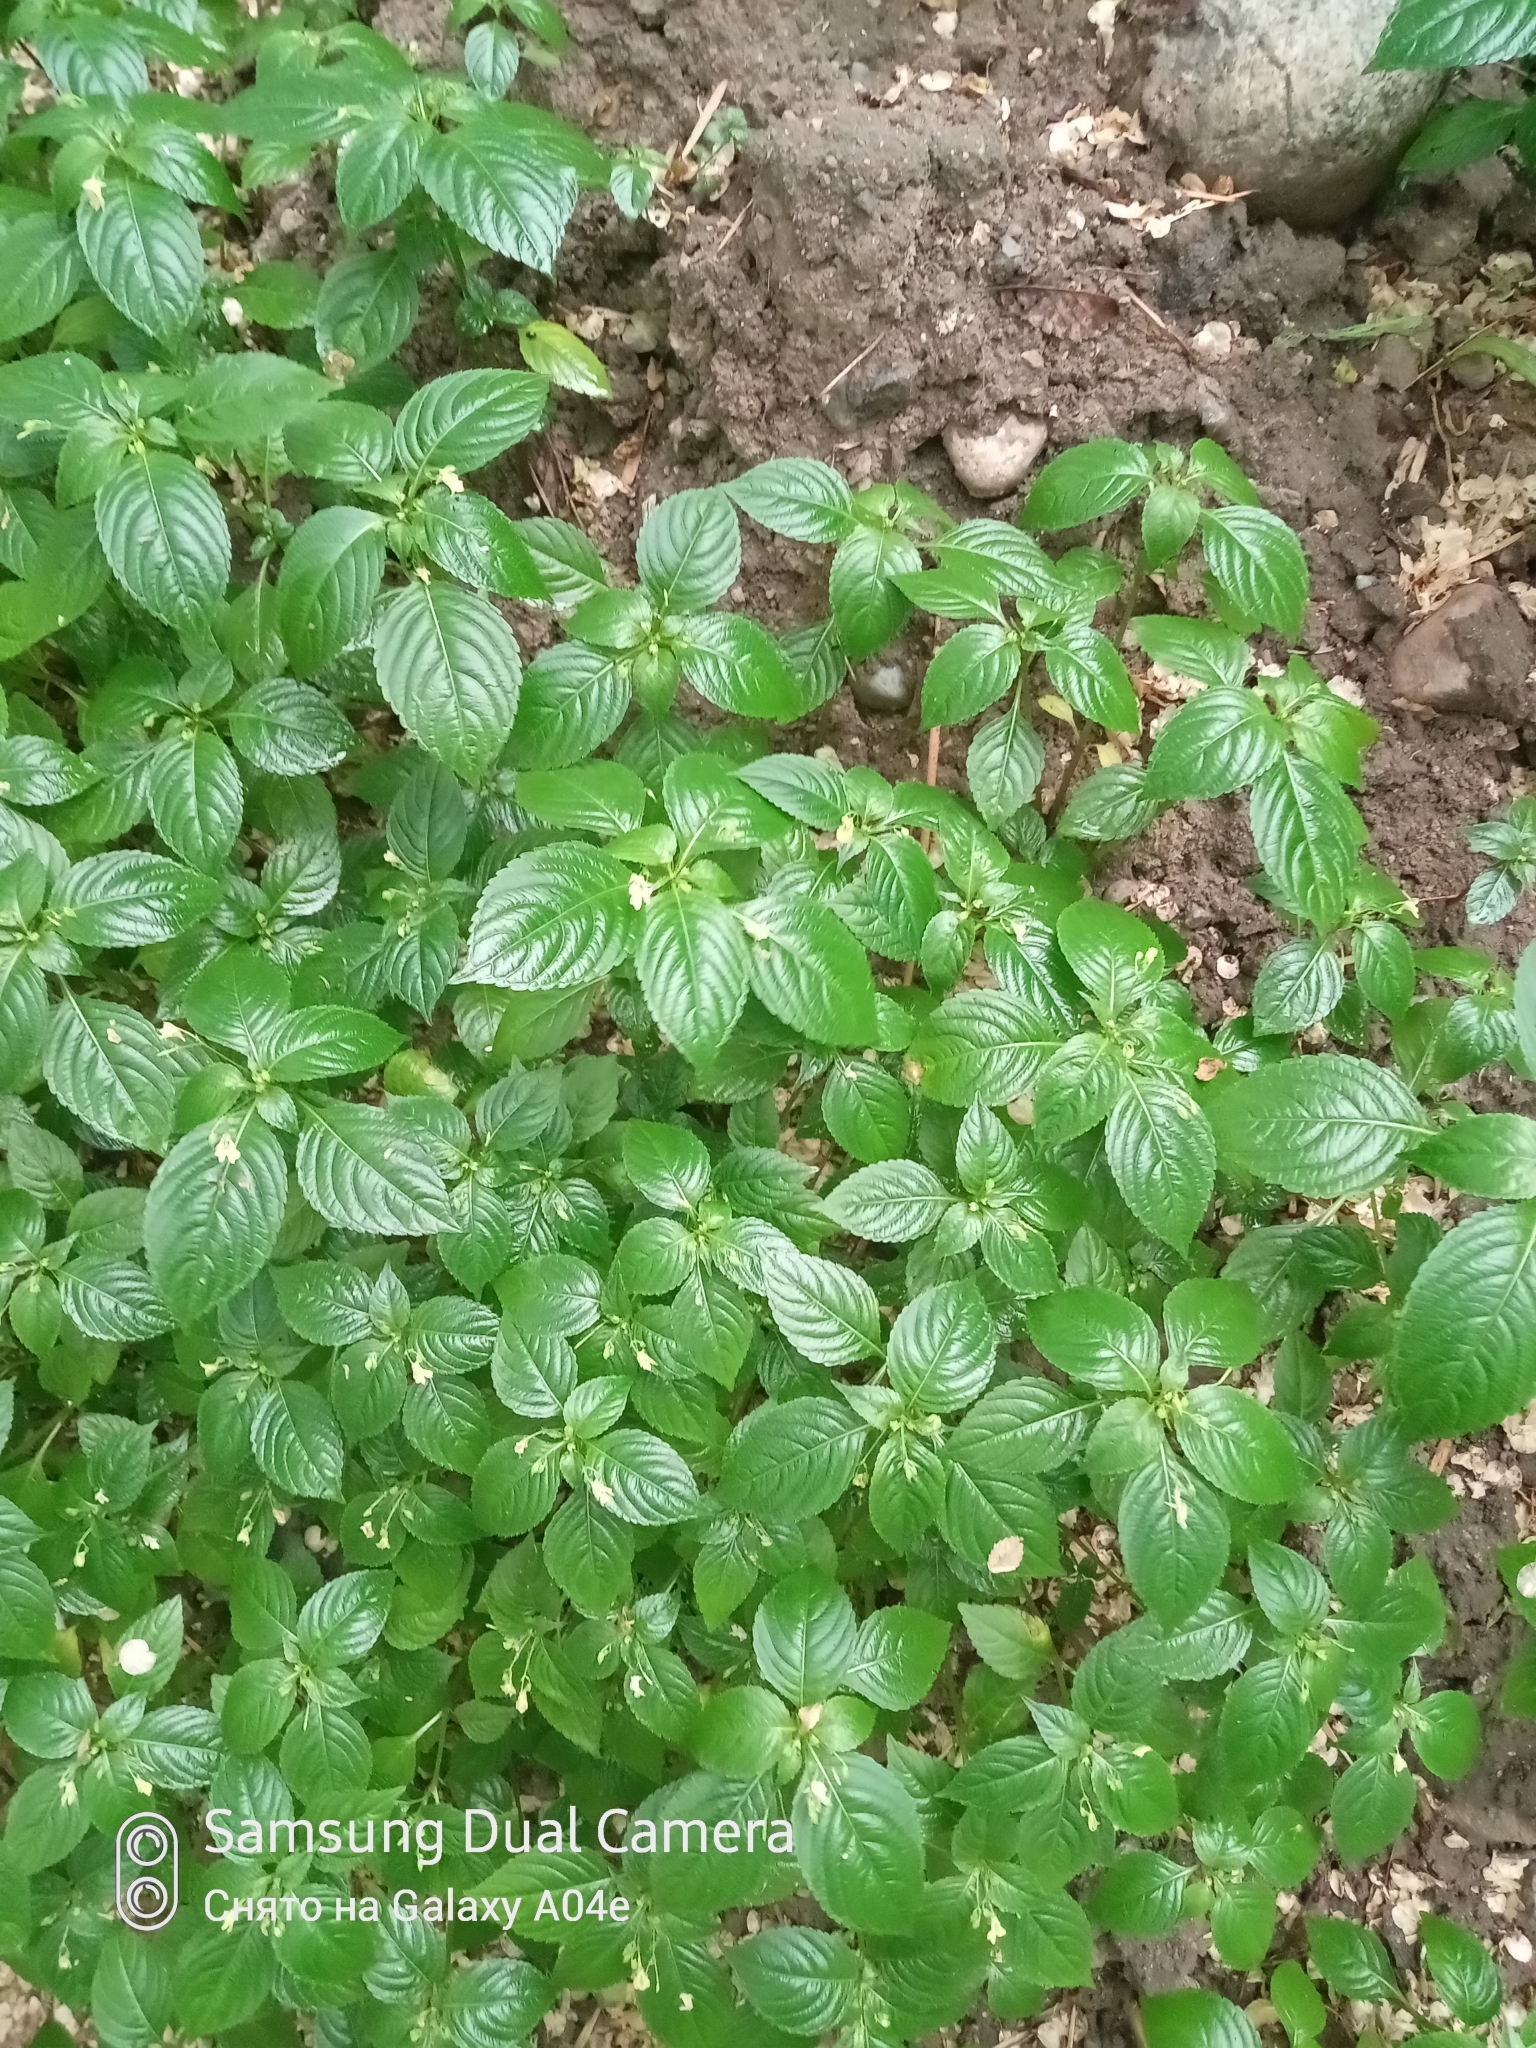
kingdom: Plantae
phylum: Tracheophyta
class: Magnoliopsida
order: Ericales
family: Balsaminaceae
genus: Impatiens
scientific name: Impatiens parviflora
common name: Small balsam
